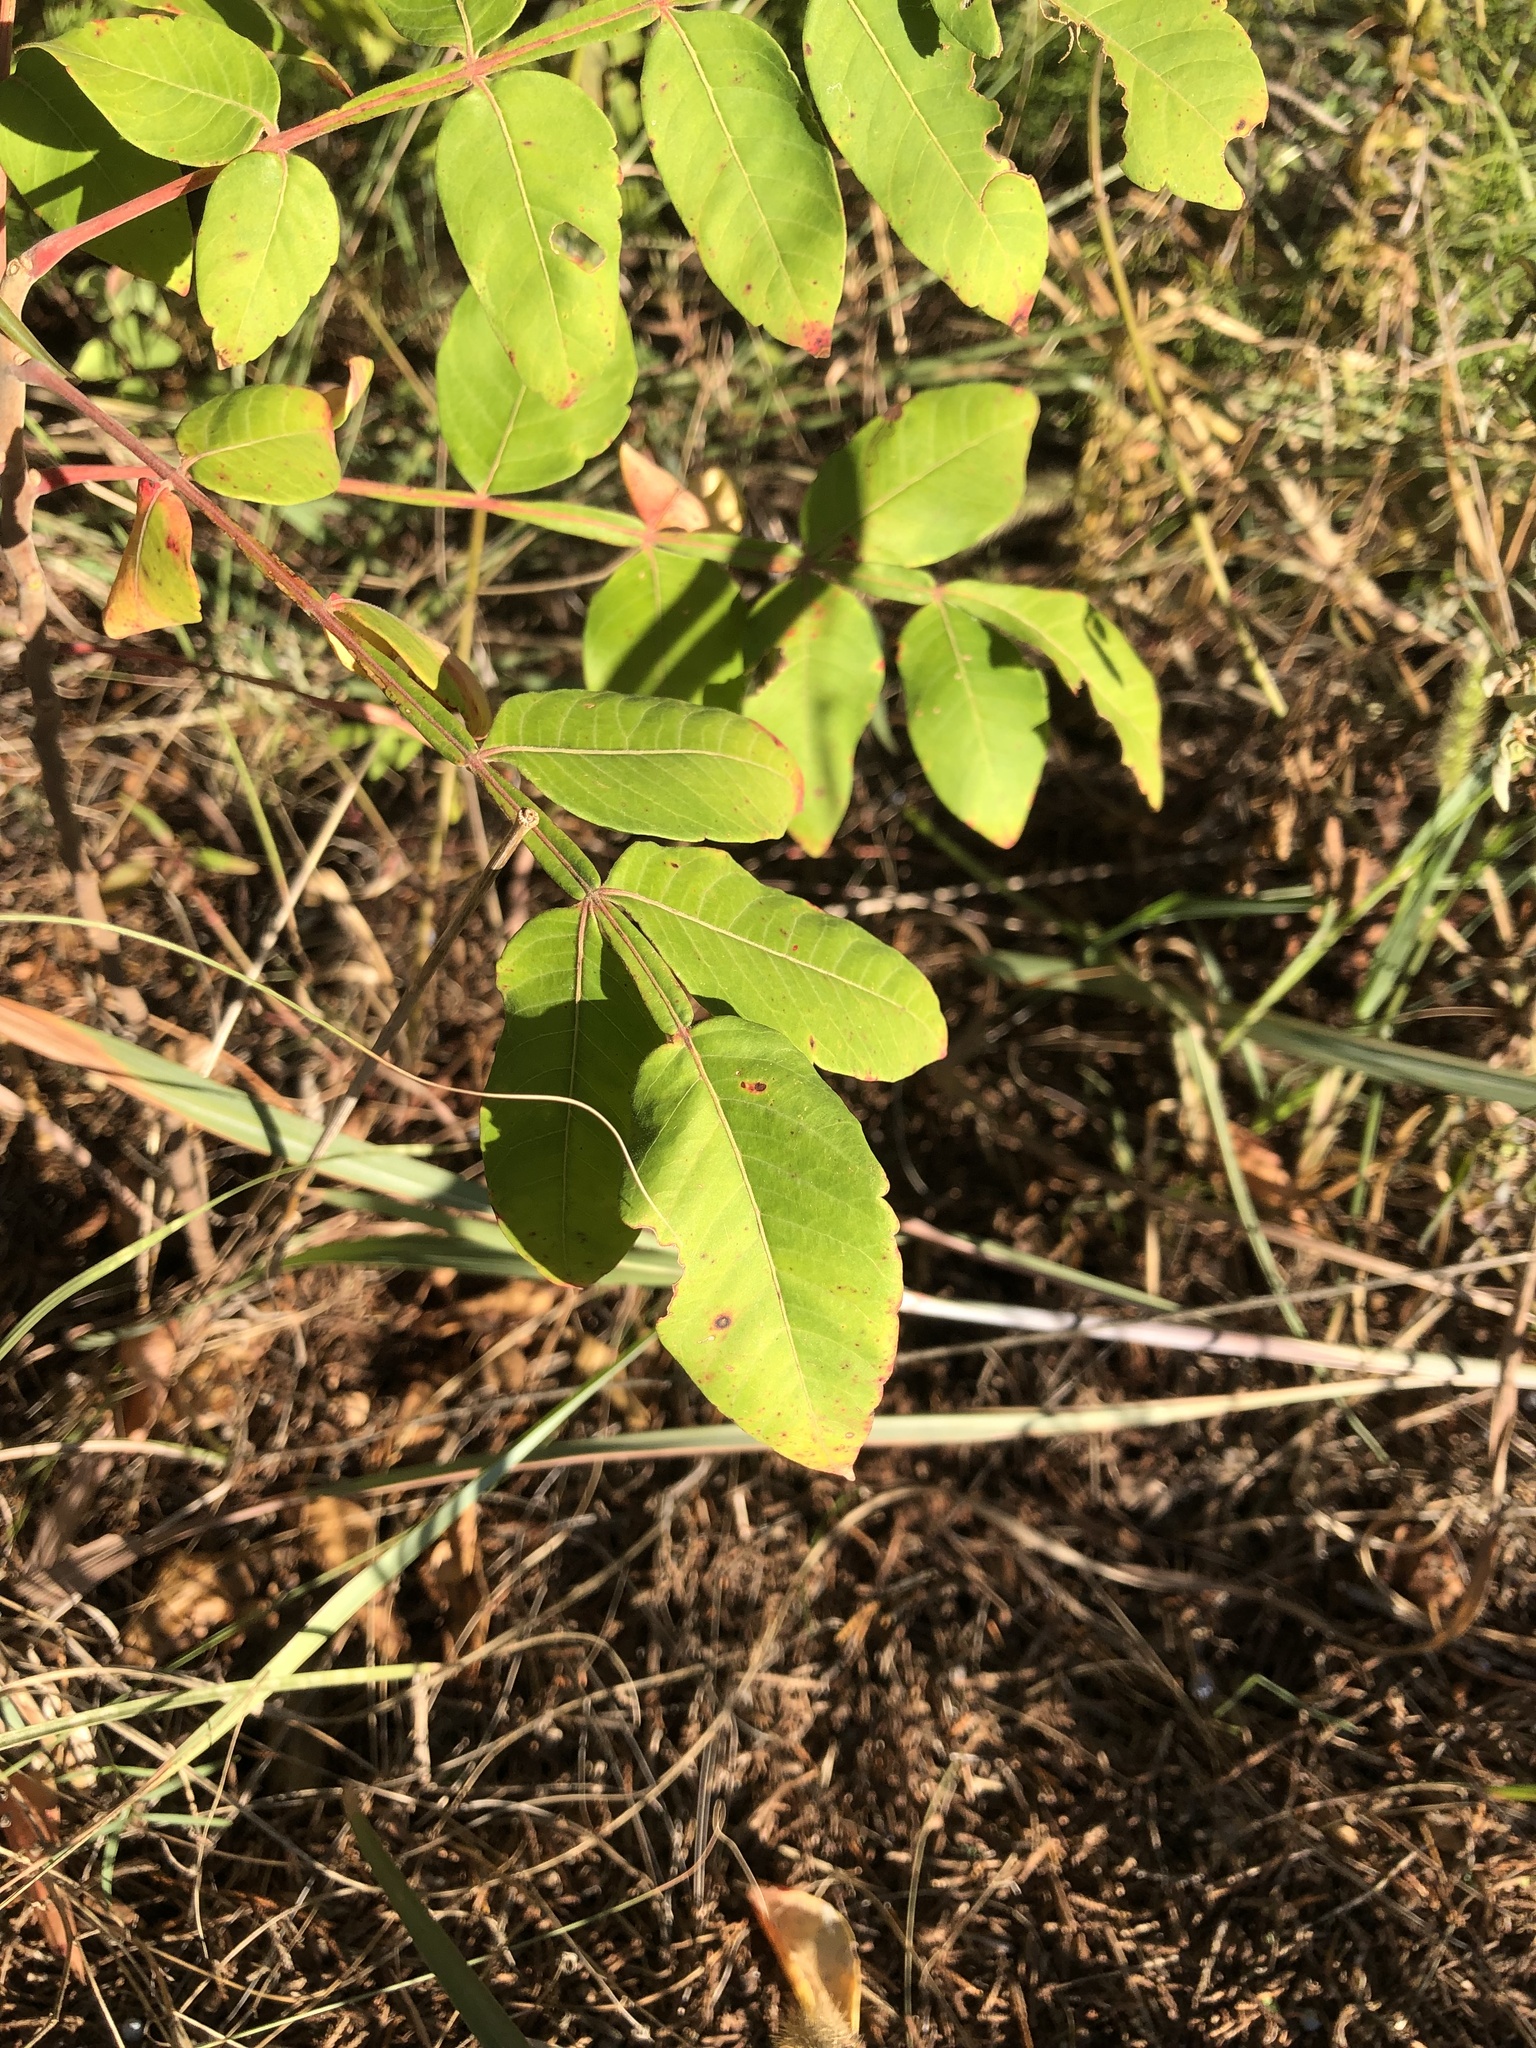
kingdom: Plantae
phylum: Tracheophyta
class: Magnoliopsida
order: Sapindales
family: Anacardiaceae
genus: Rhus
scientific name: Rhus copallina
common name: Shining sumac
